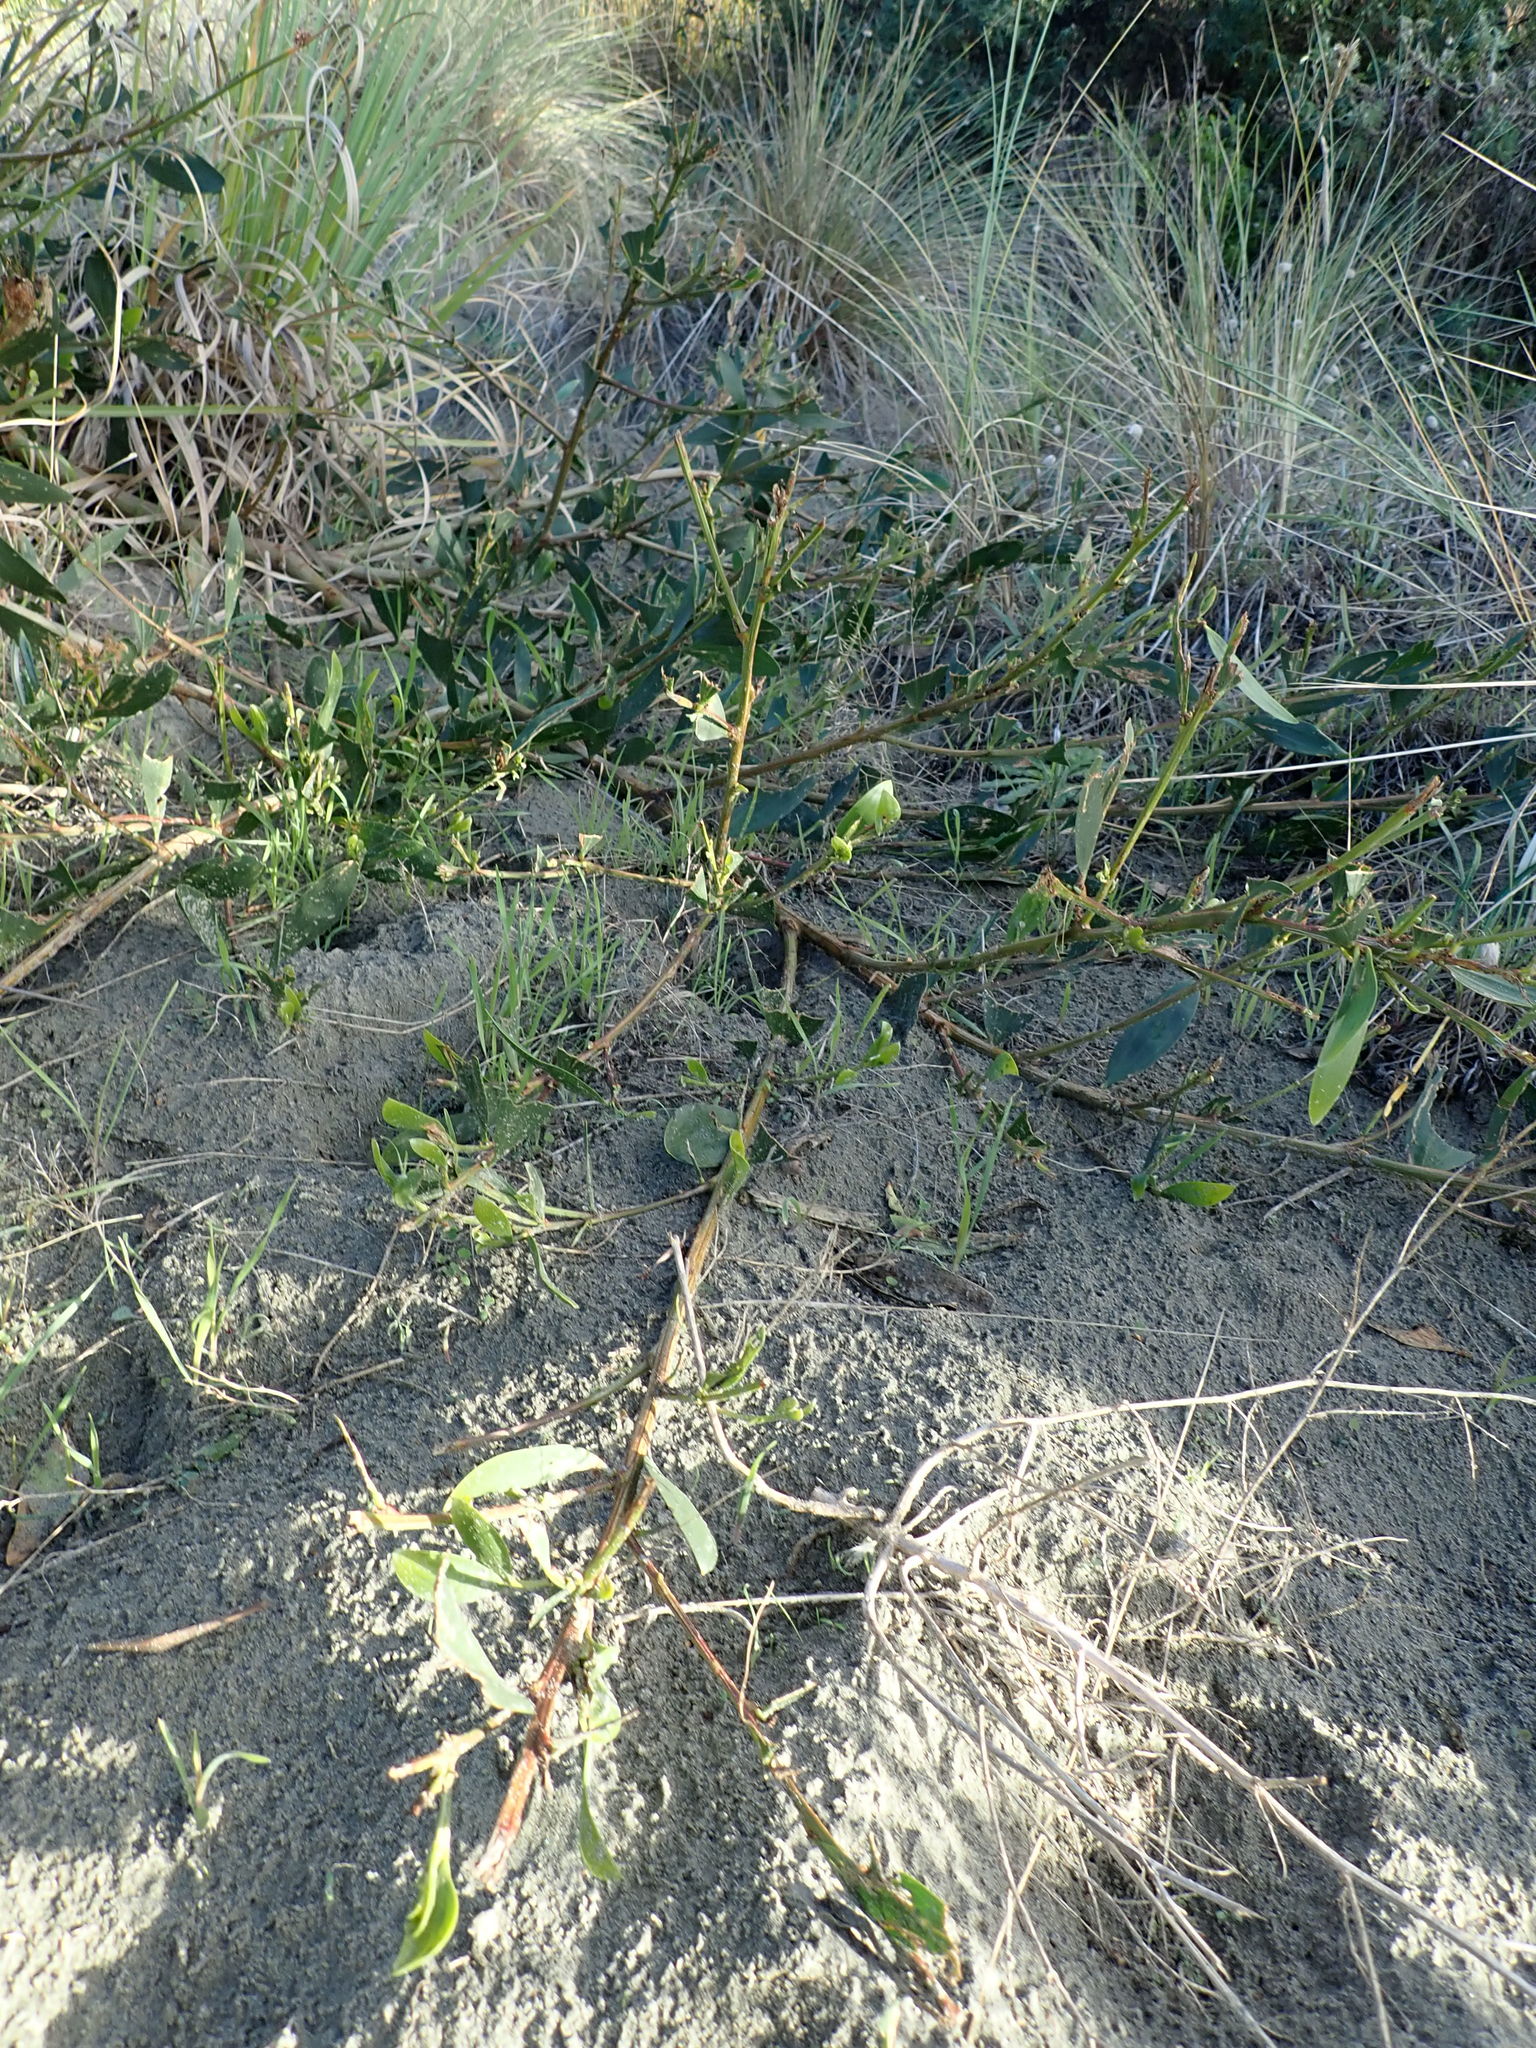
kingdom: Plantae
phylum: Tracheophyta
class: Magnoliopsida
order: Fabales
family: Fabaceae
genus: Acacia
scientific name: Acacia longifolia
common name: Sydney golden wattle
